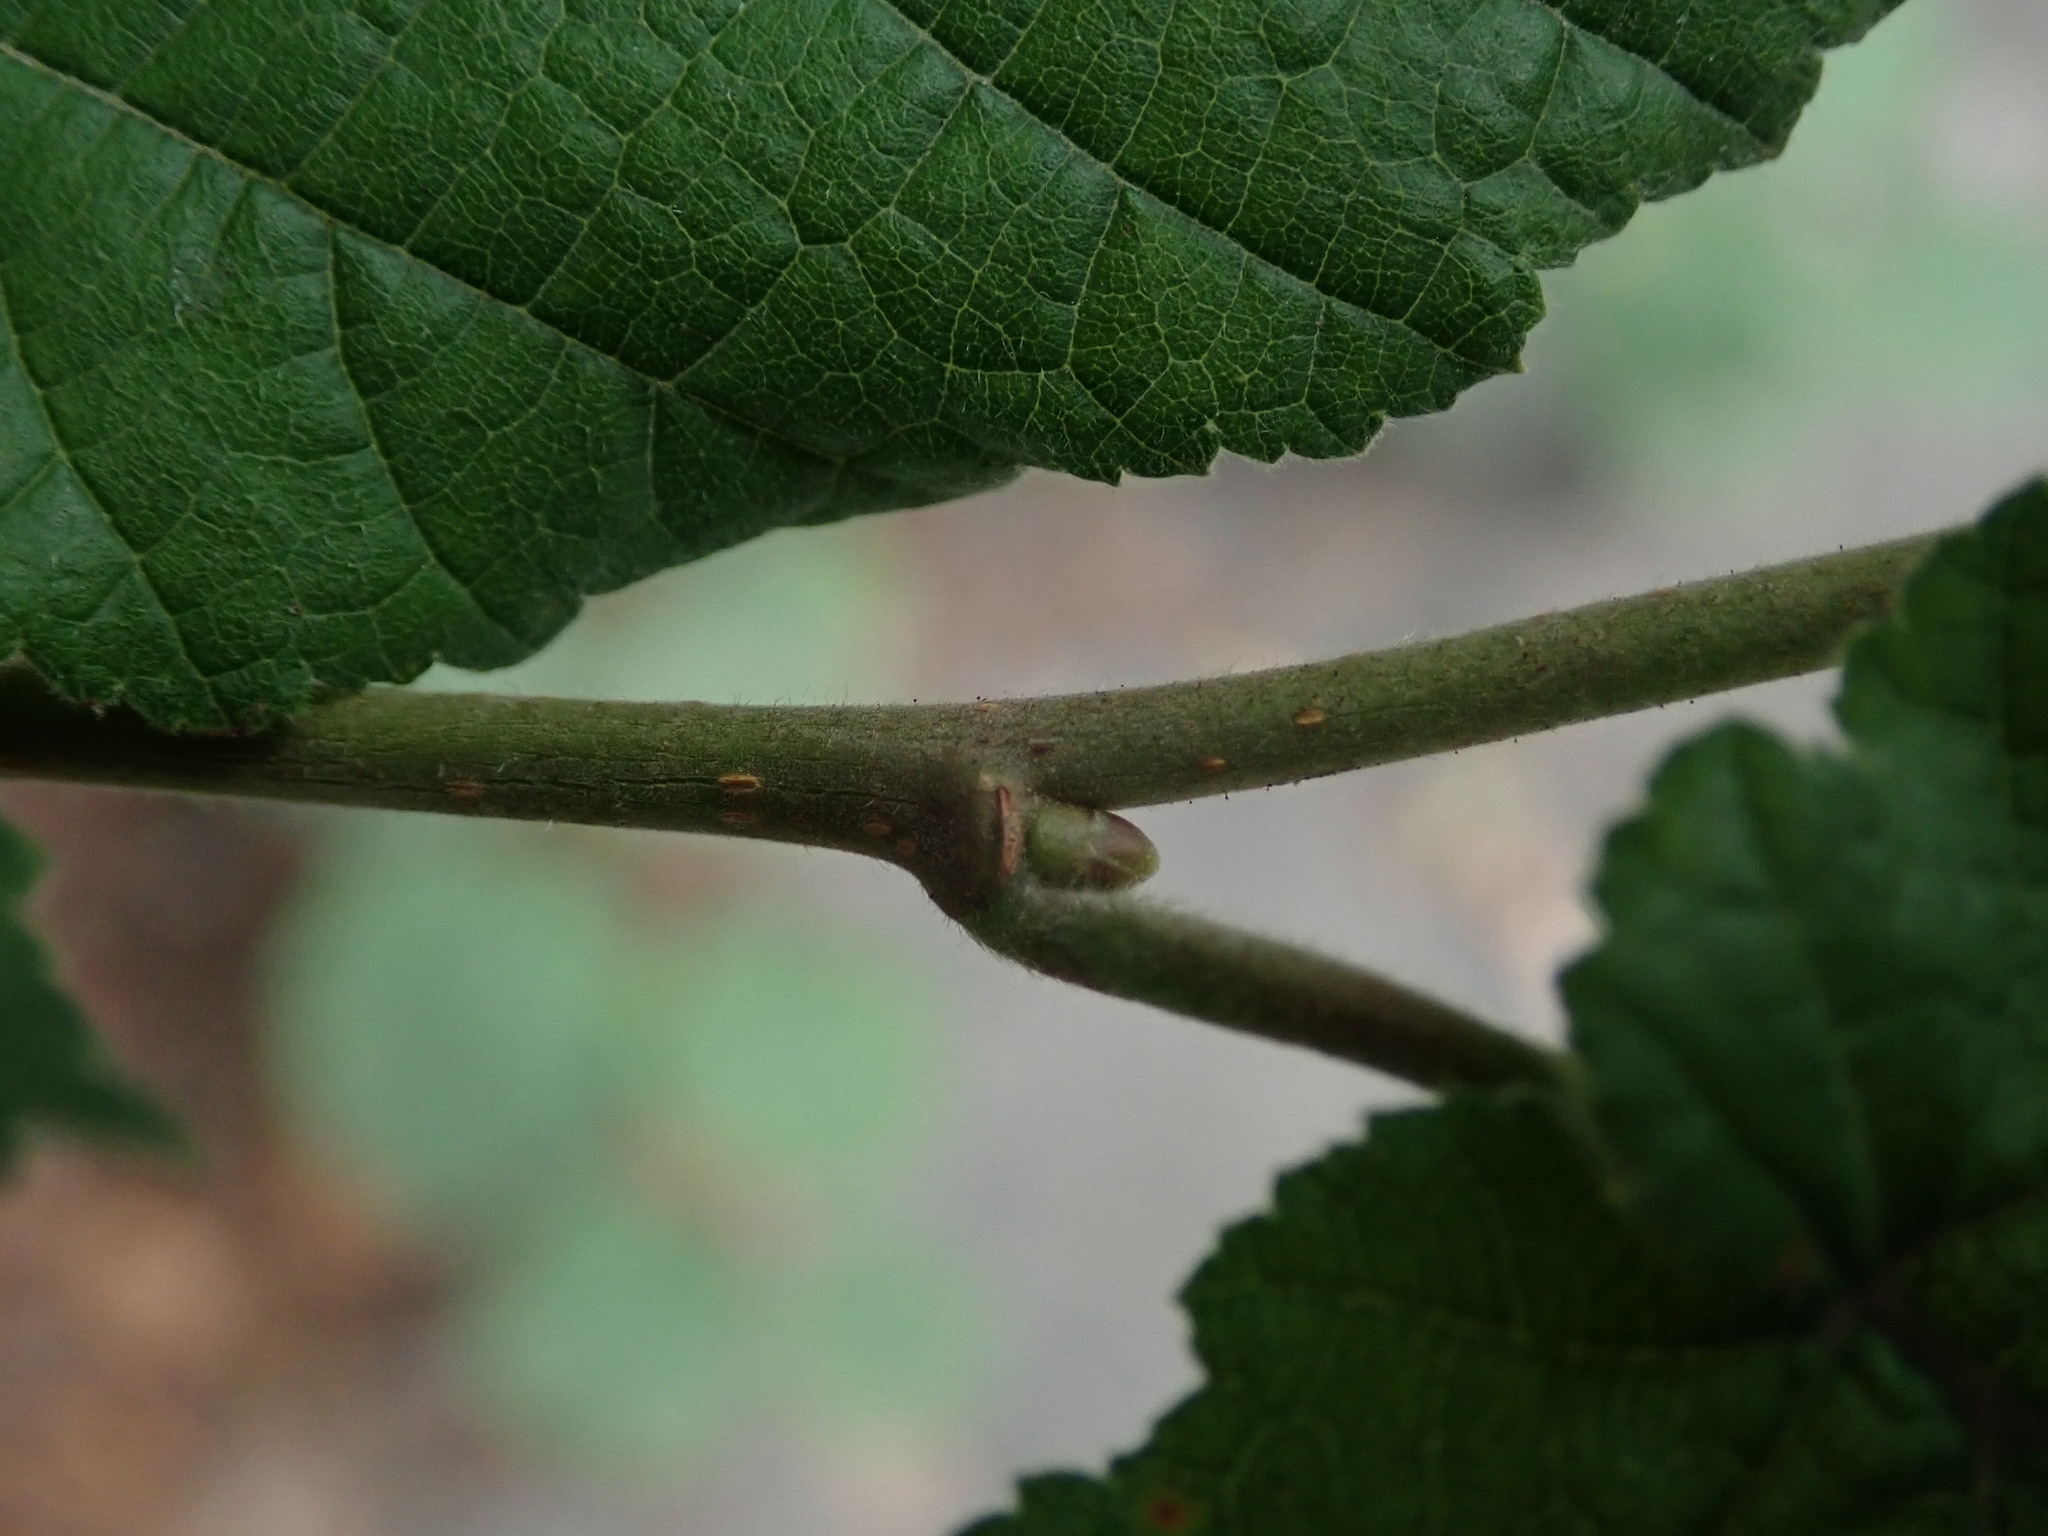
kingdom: Plantae
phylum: Tracheophyta
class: Magnoliopsida
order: Fagales
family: Betulaceae
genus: Corylus
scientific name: Corylus avellana
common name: European hazel
